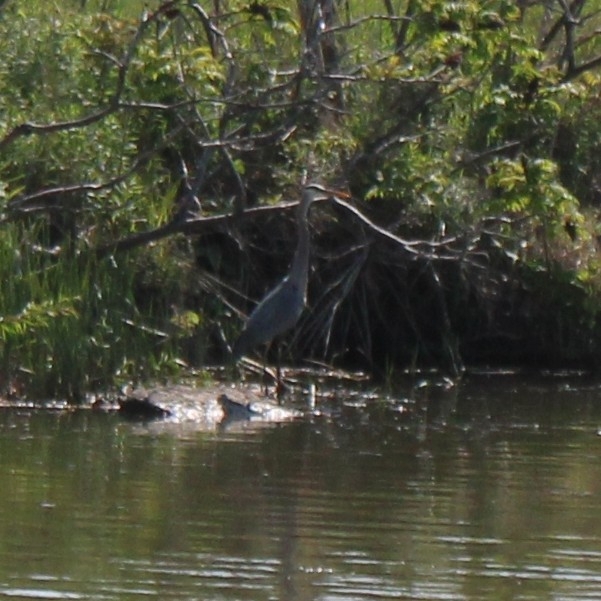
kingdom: Animalia
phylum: Chordata
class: Aves
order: Pelecaniformes
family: Ardeidae
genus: Ardea
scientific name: Ardea herodias
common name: Great blue heron
